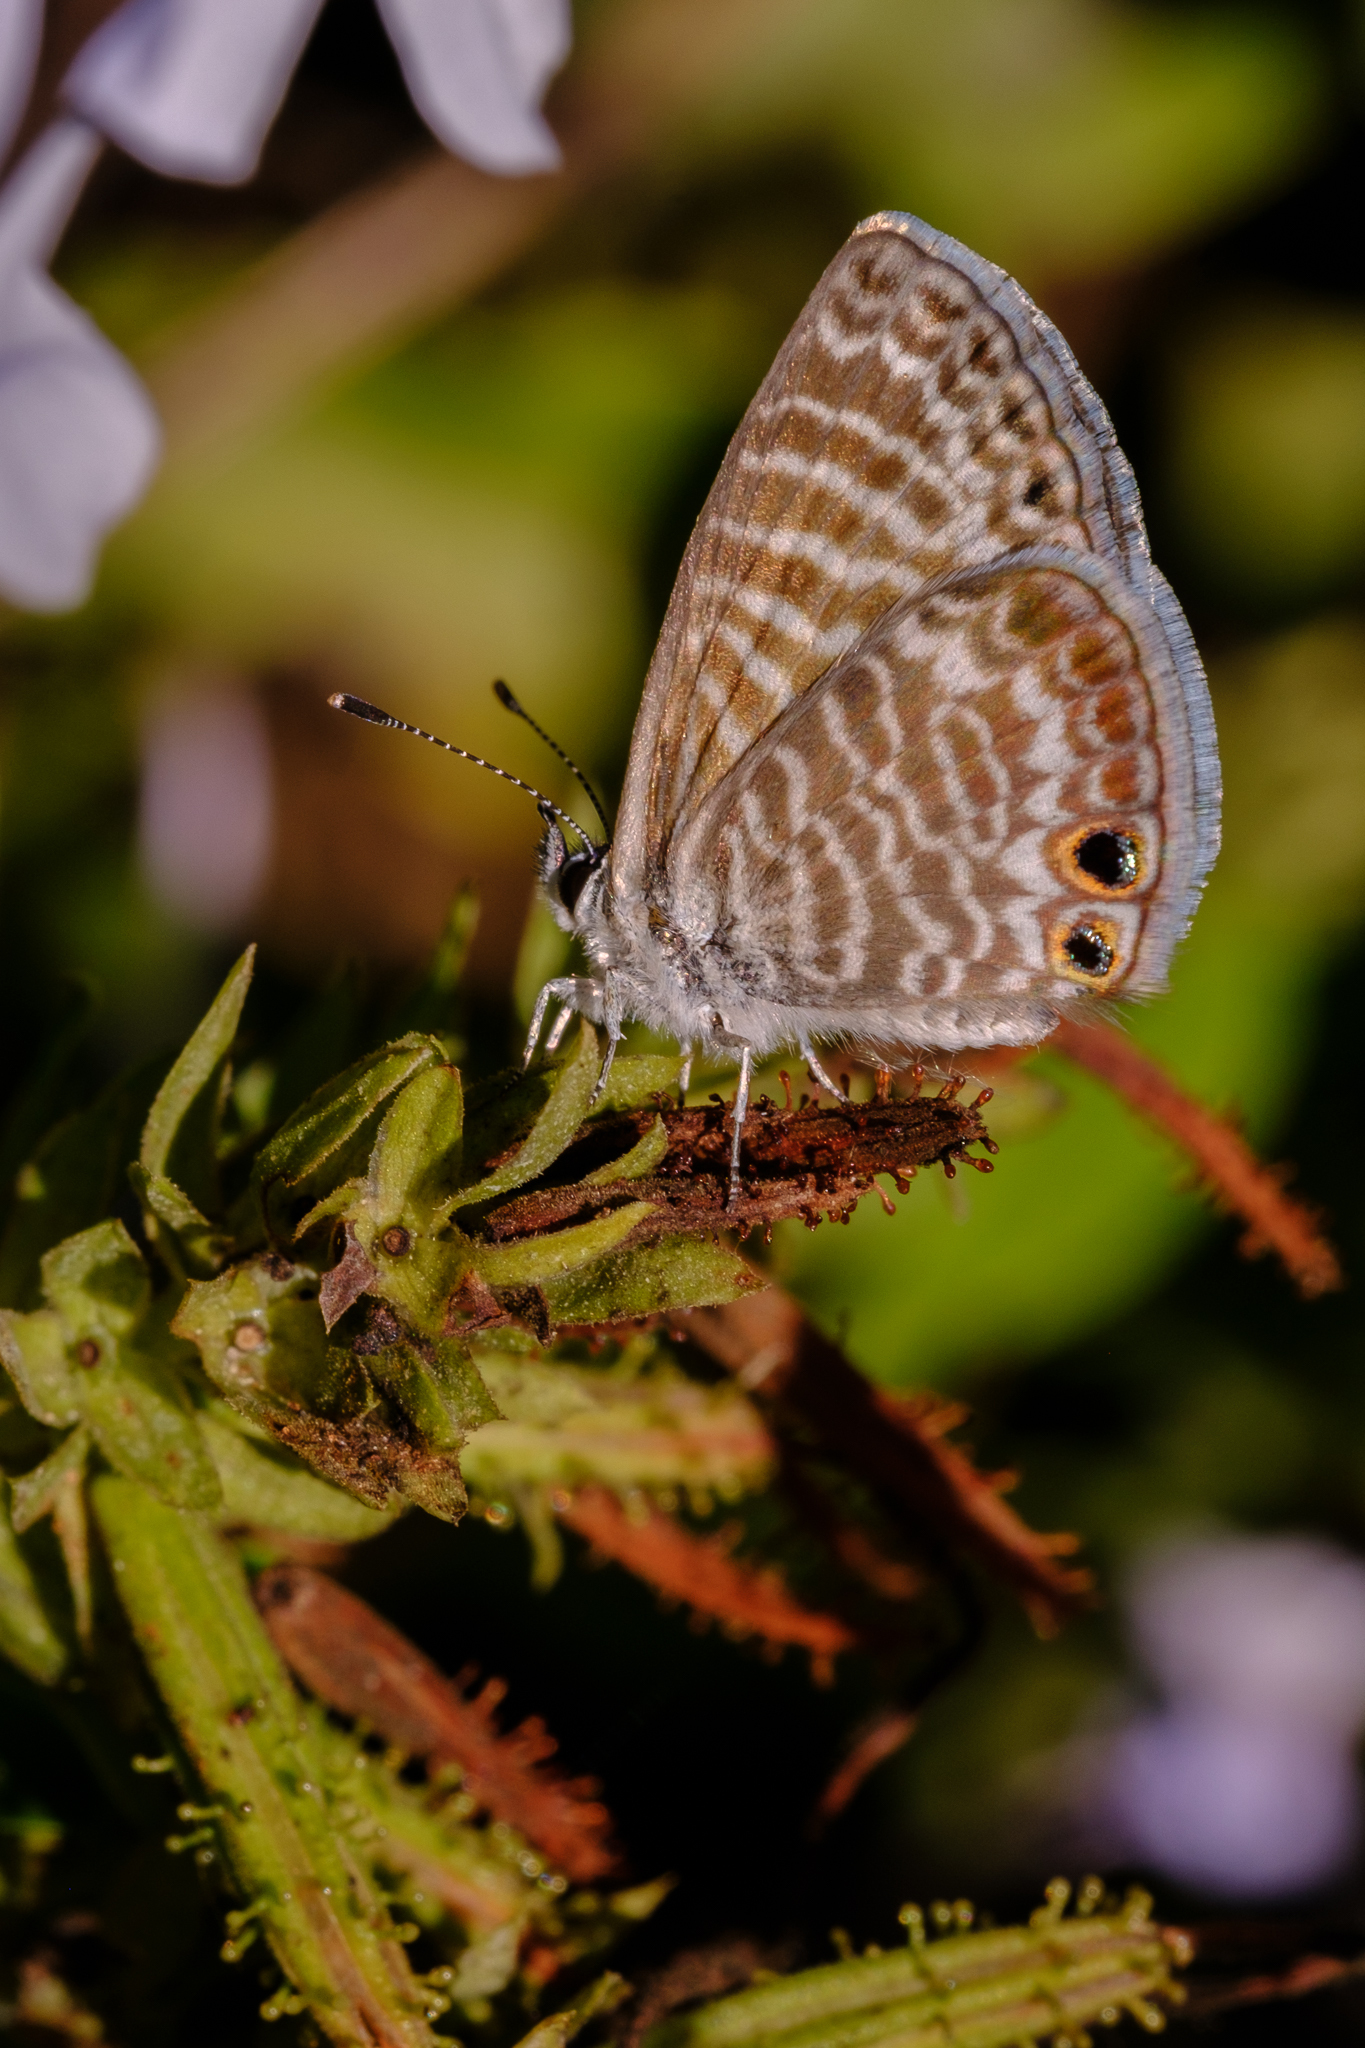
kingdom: Animalia
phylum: Arthropoda
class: Insecta
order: Lepidoptera
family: Lycaenidae
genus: Leptotes
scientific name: Leptotes marina
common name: Marine blue
